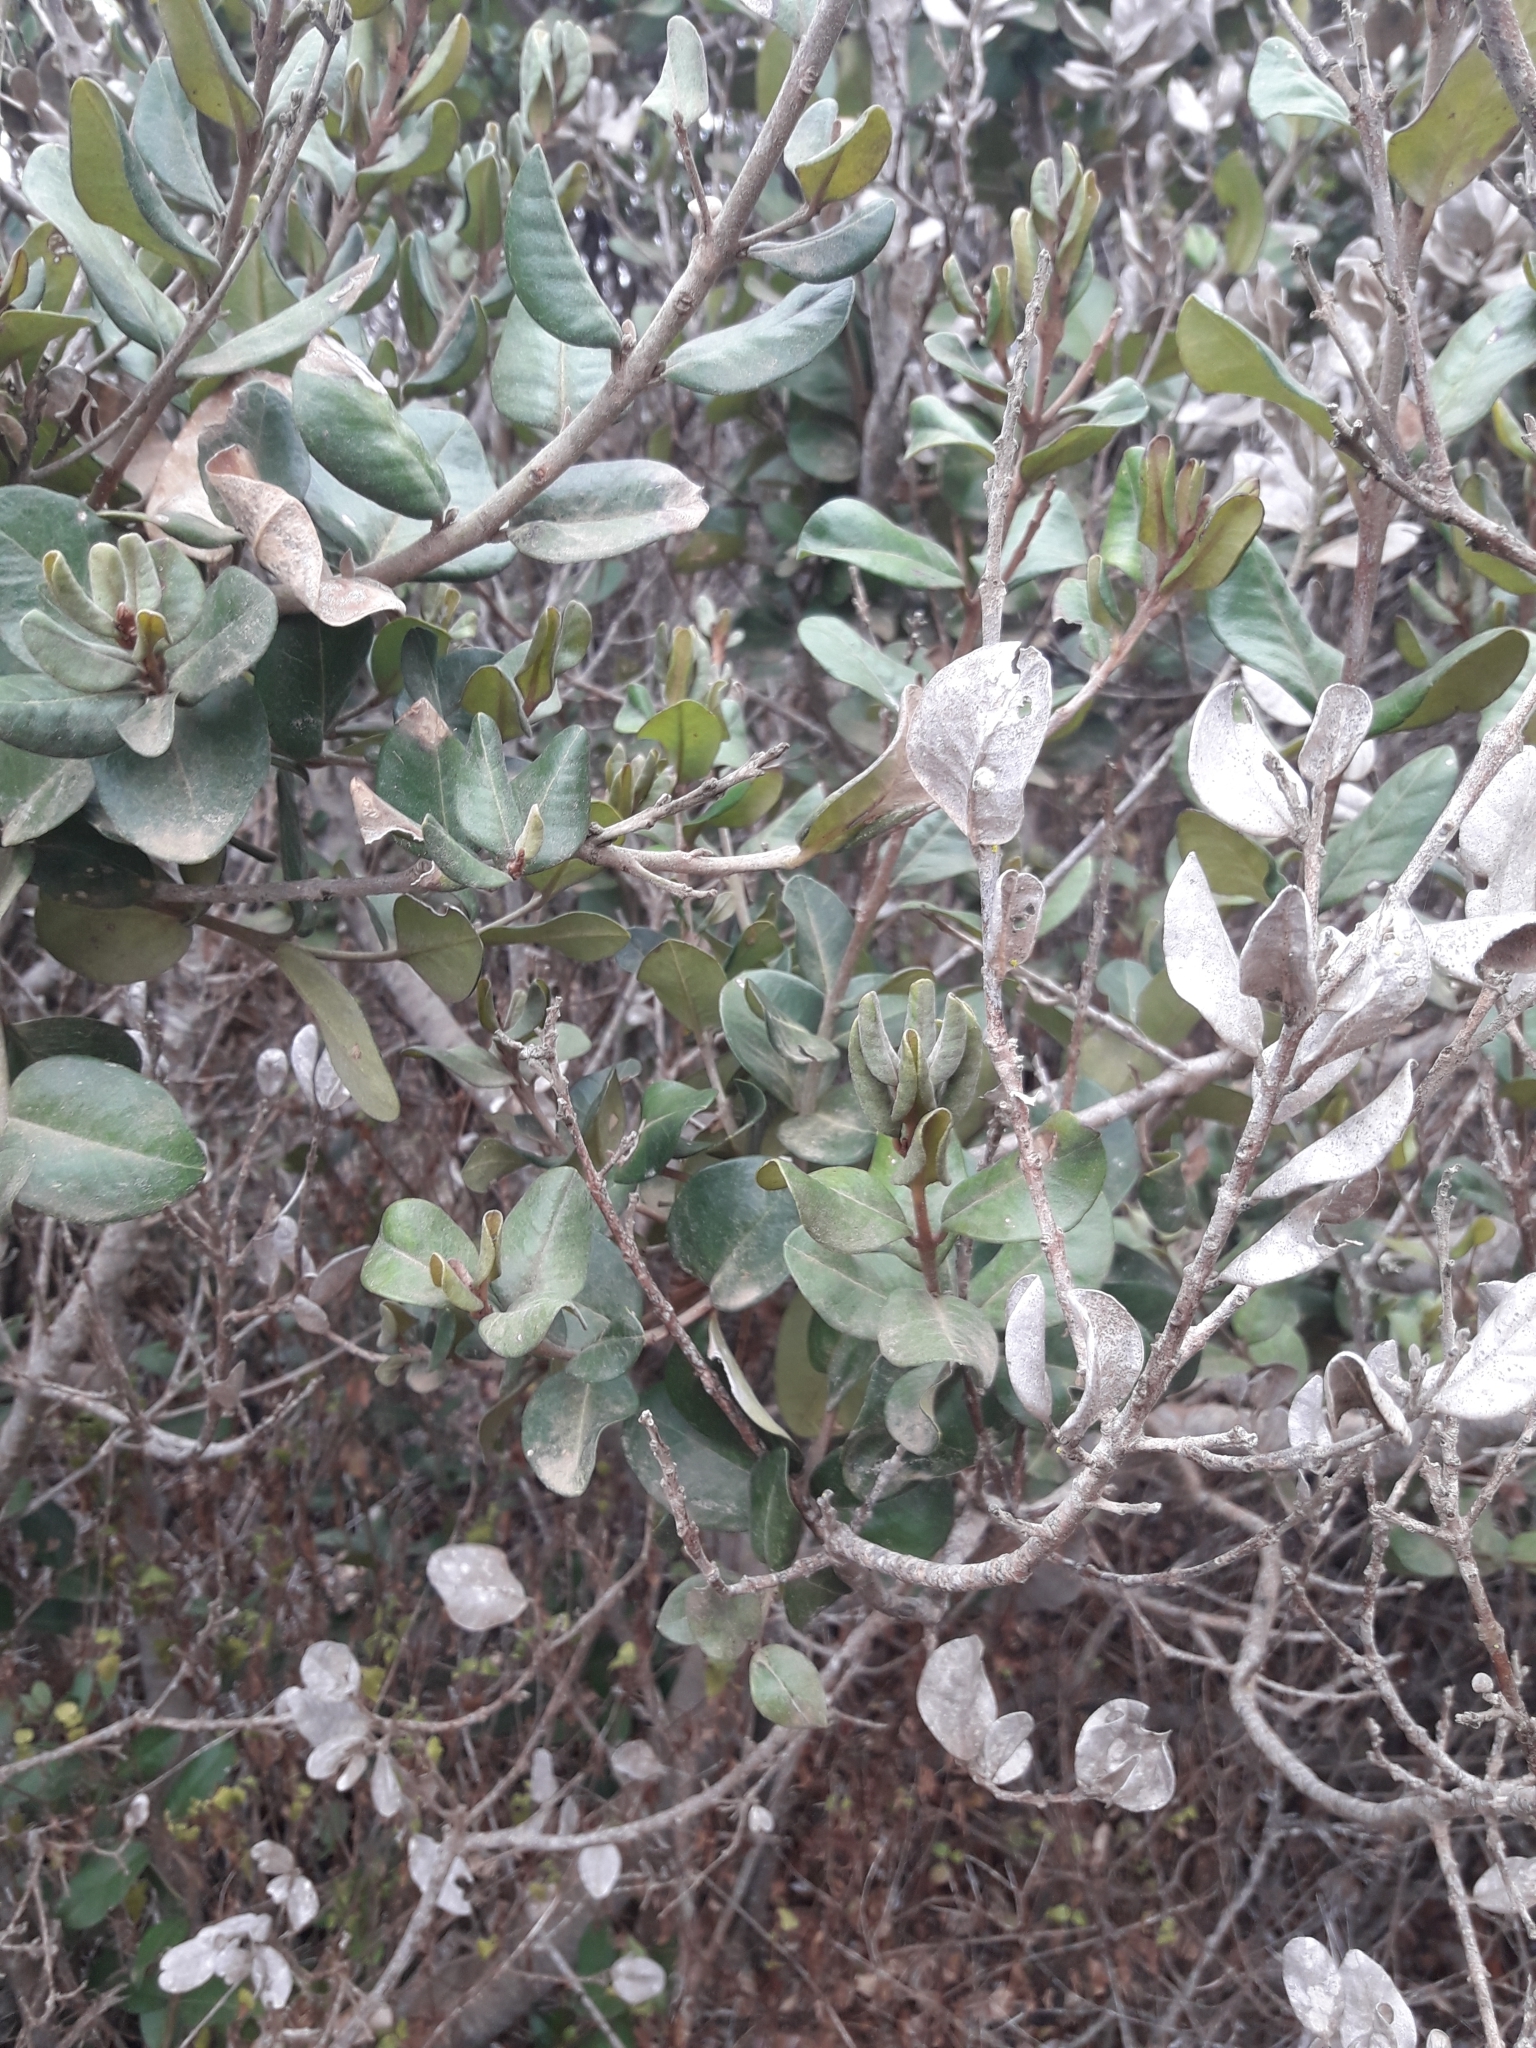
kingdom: Plantae
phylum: Tracheophyta
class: Magnoliopsida
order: Myrtales
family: Myrtaceae
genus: Myrceugenia
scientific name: Myrceugenia correifolia
